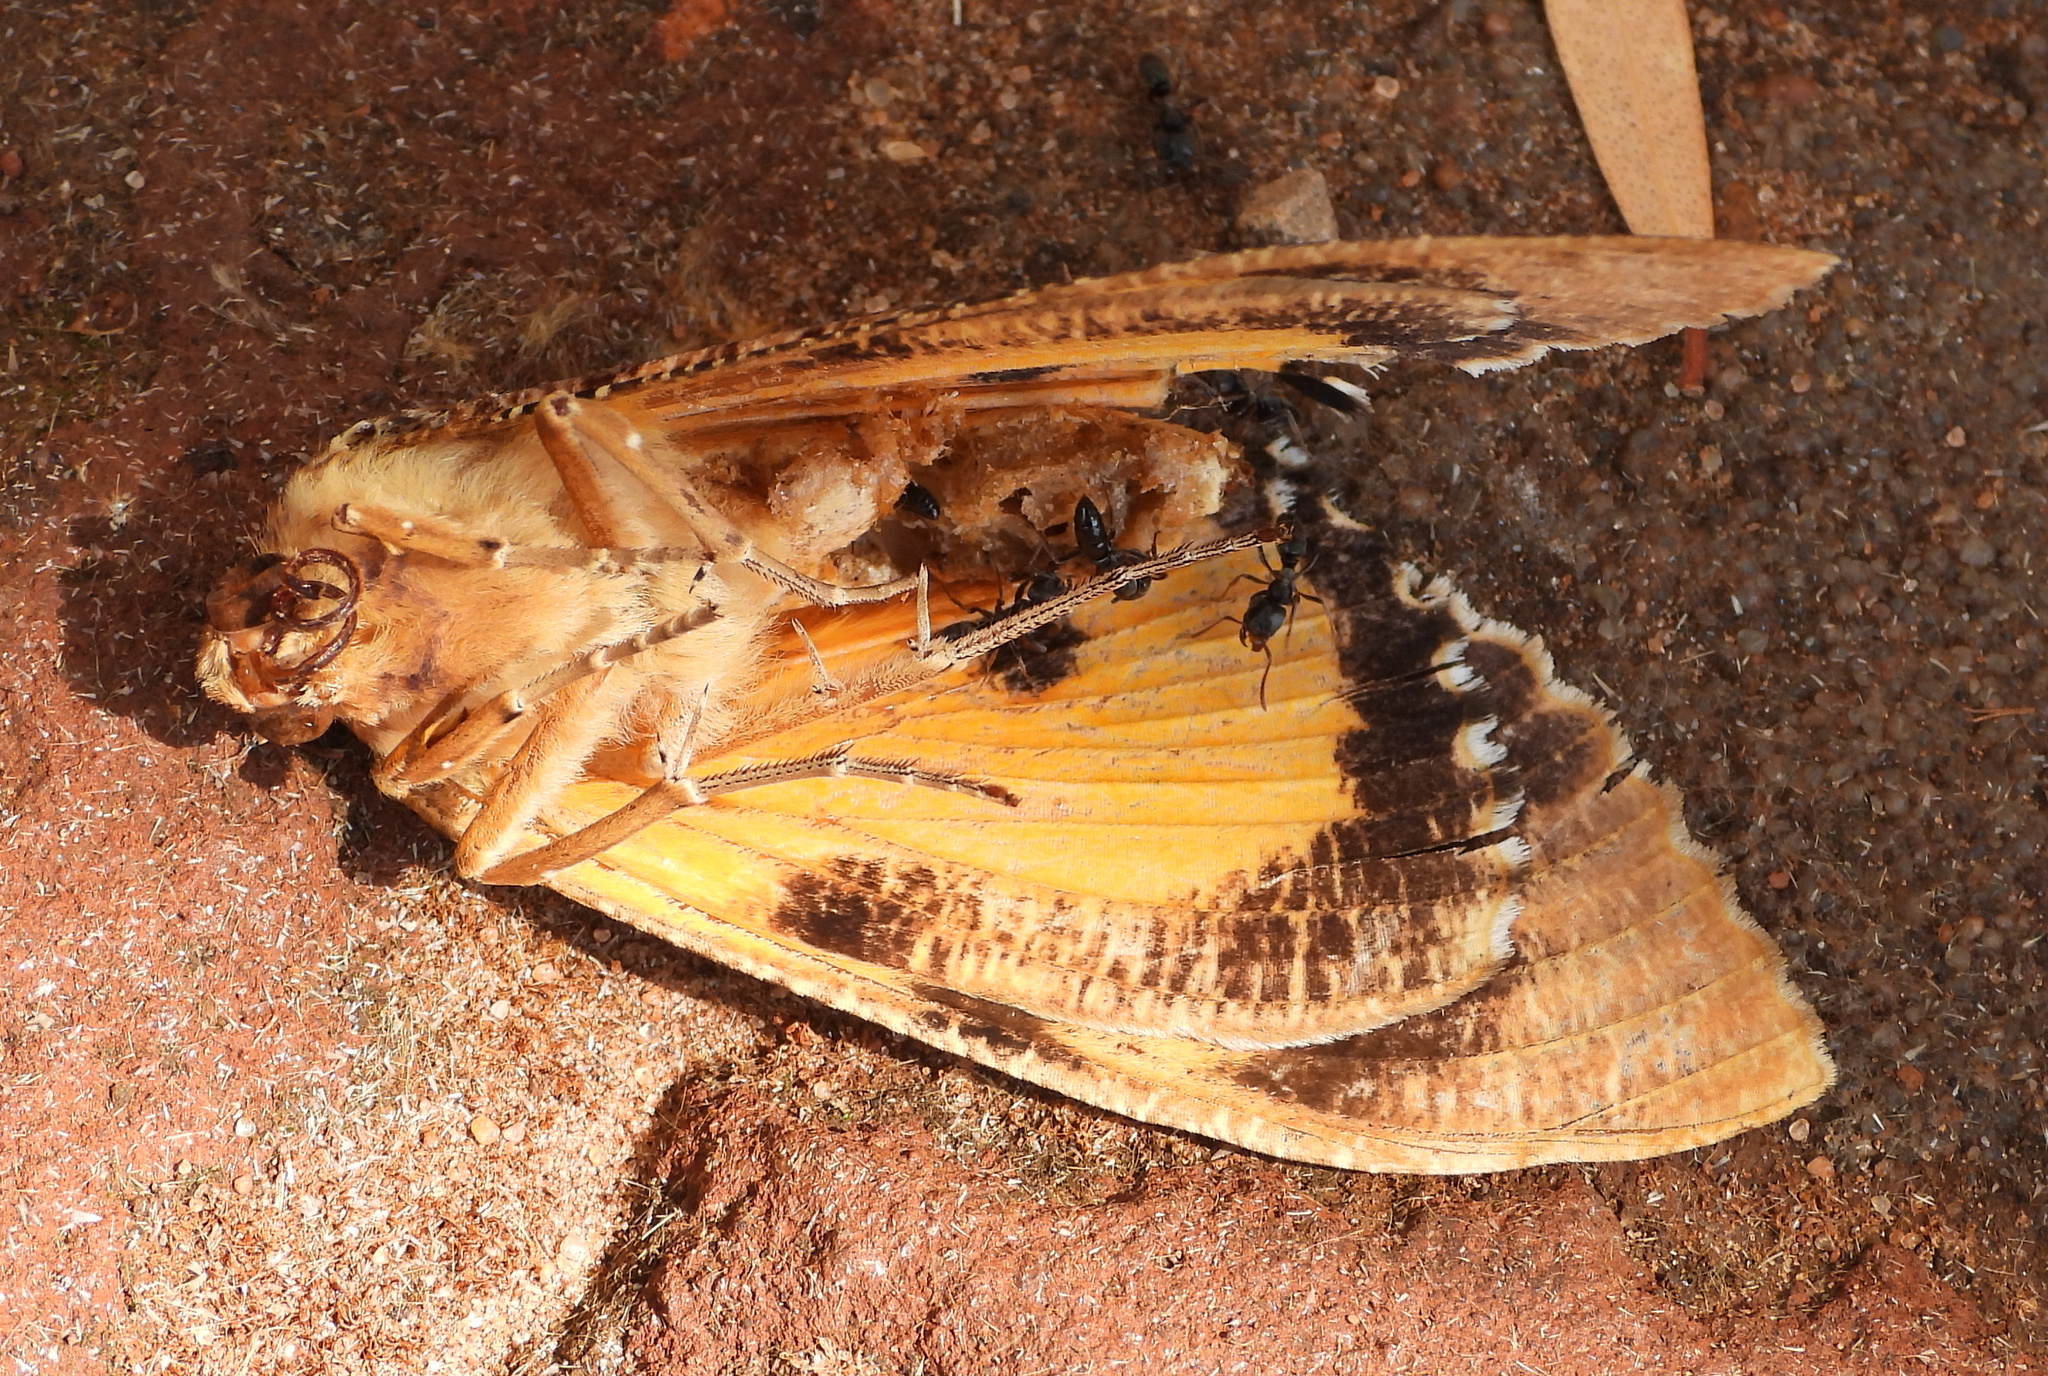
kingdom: Animalia
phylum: Arthropoda
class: Insecta
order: Lepidoptera
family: Erebidae
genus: Eudocima
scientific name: Eudocima materna
